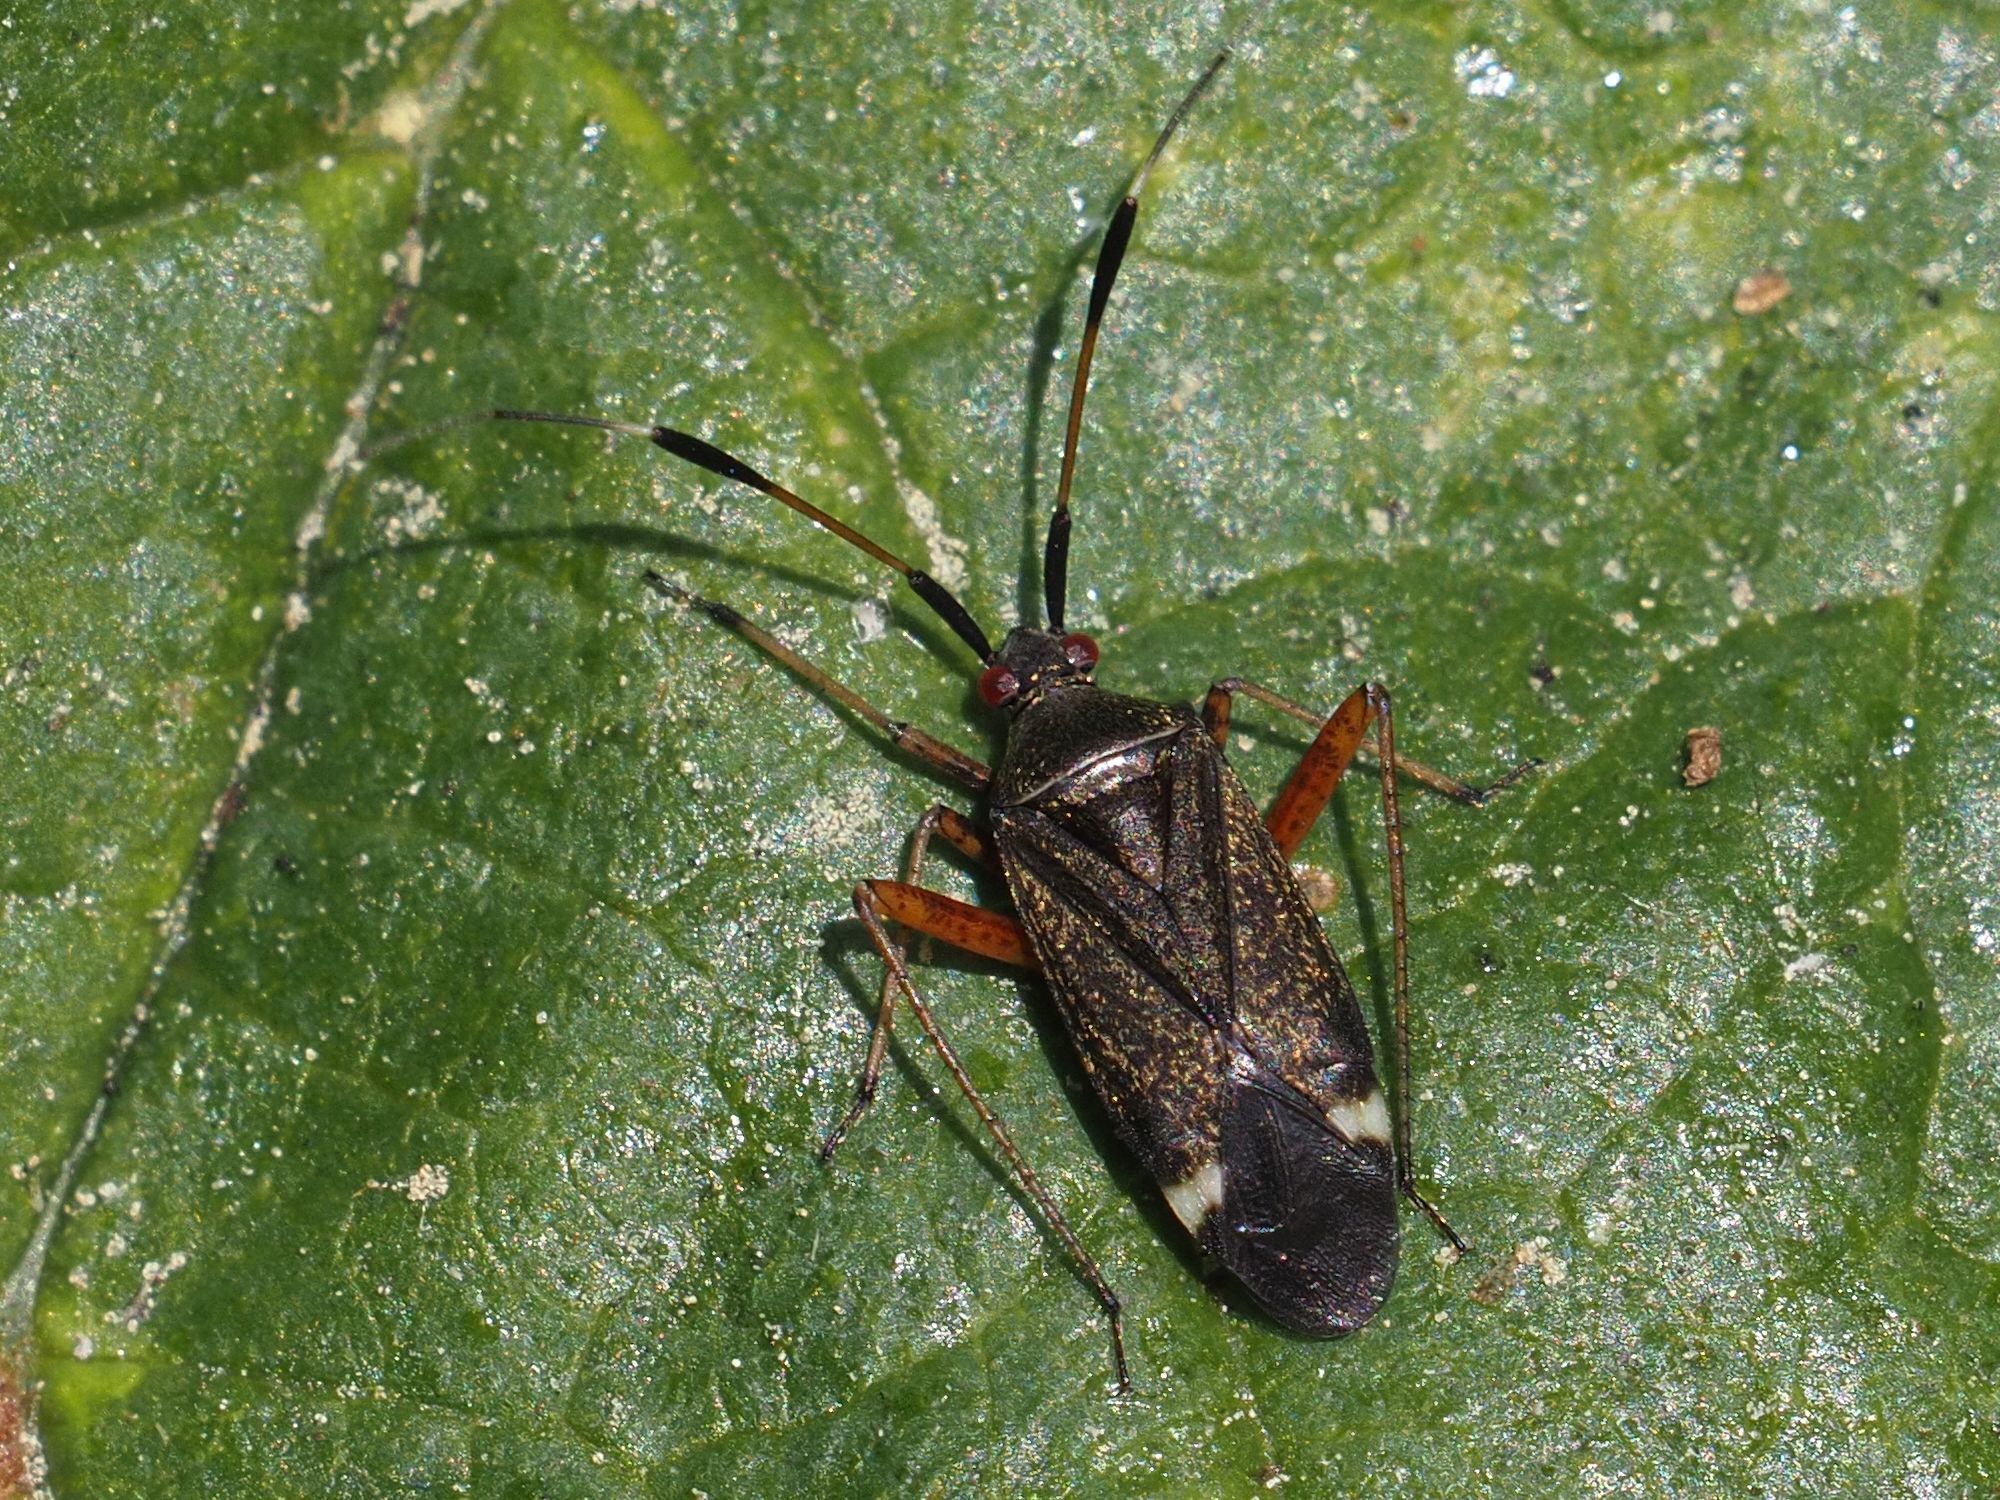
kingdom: Animalia
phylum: Arthropoda
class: Insecta
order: Hemiptera
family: Miridae
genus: Closterotomus
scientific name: Closterotomus biclavatus
